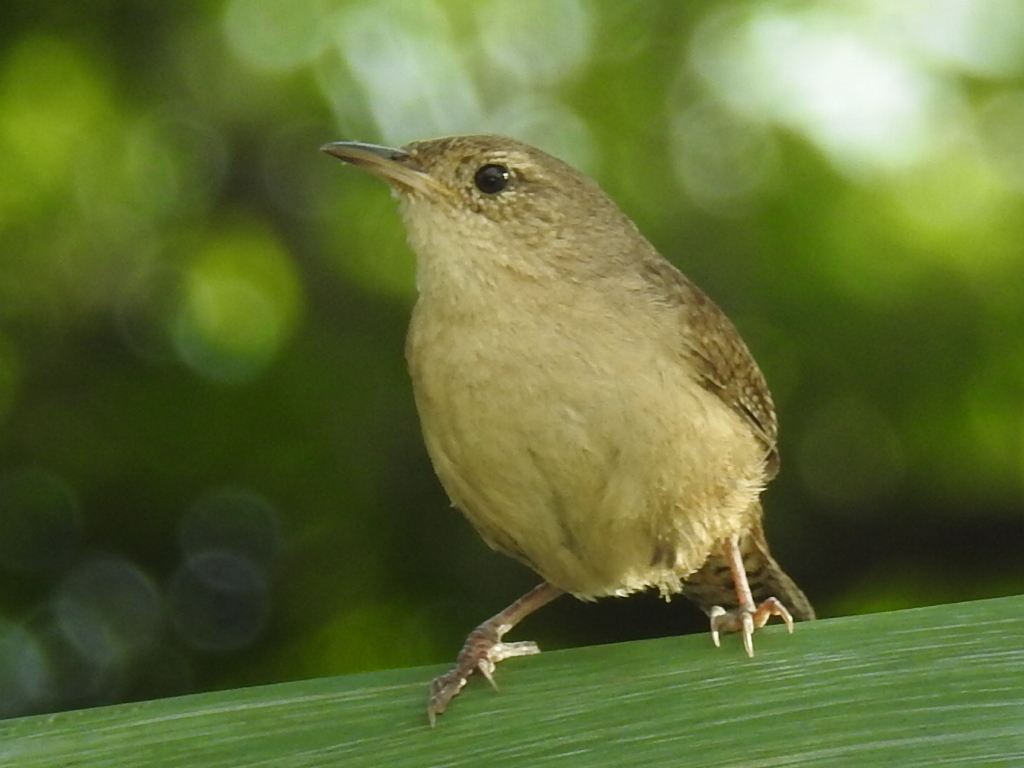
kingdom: Animalia
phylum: Chordata
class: Aves
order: Passeriformes
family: Troglodytidae
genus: Troglodytes
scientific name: Troglodytes aedon
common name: House wren
